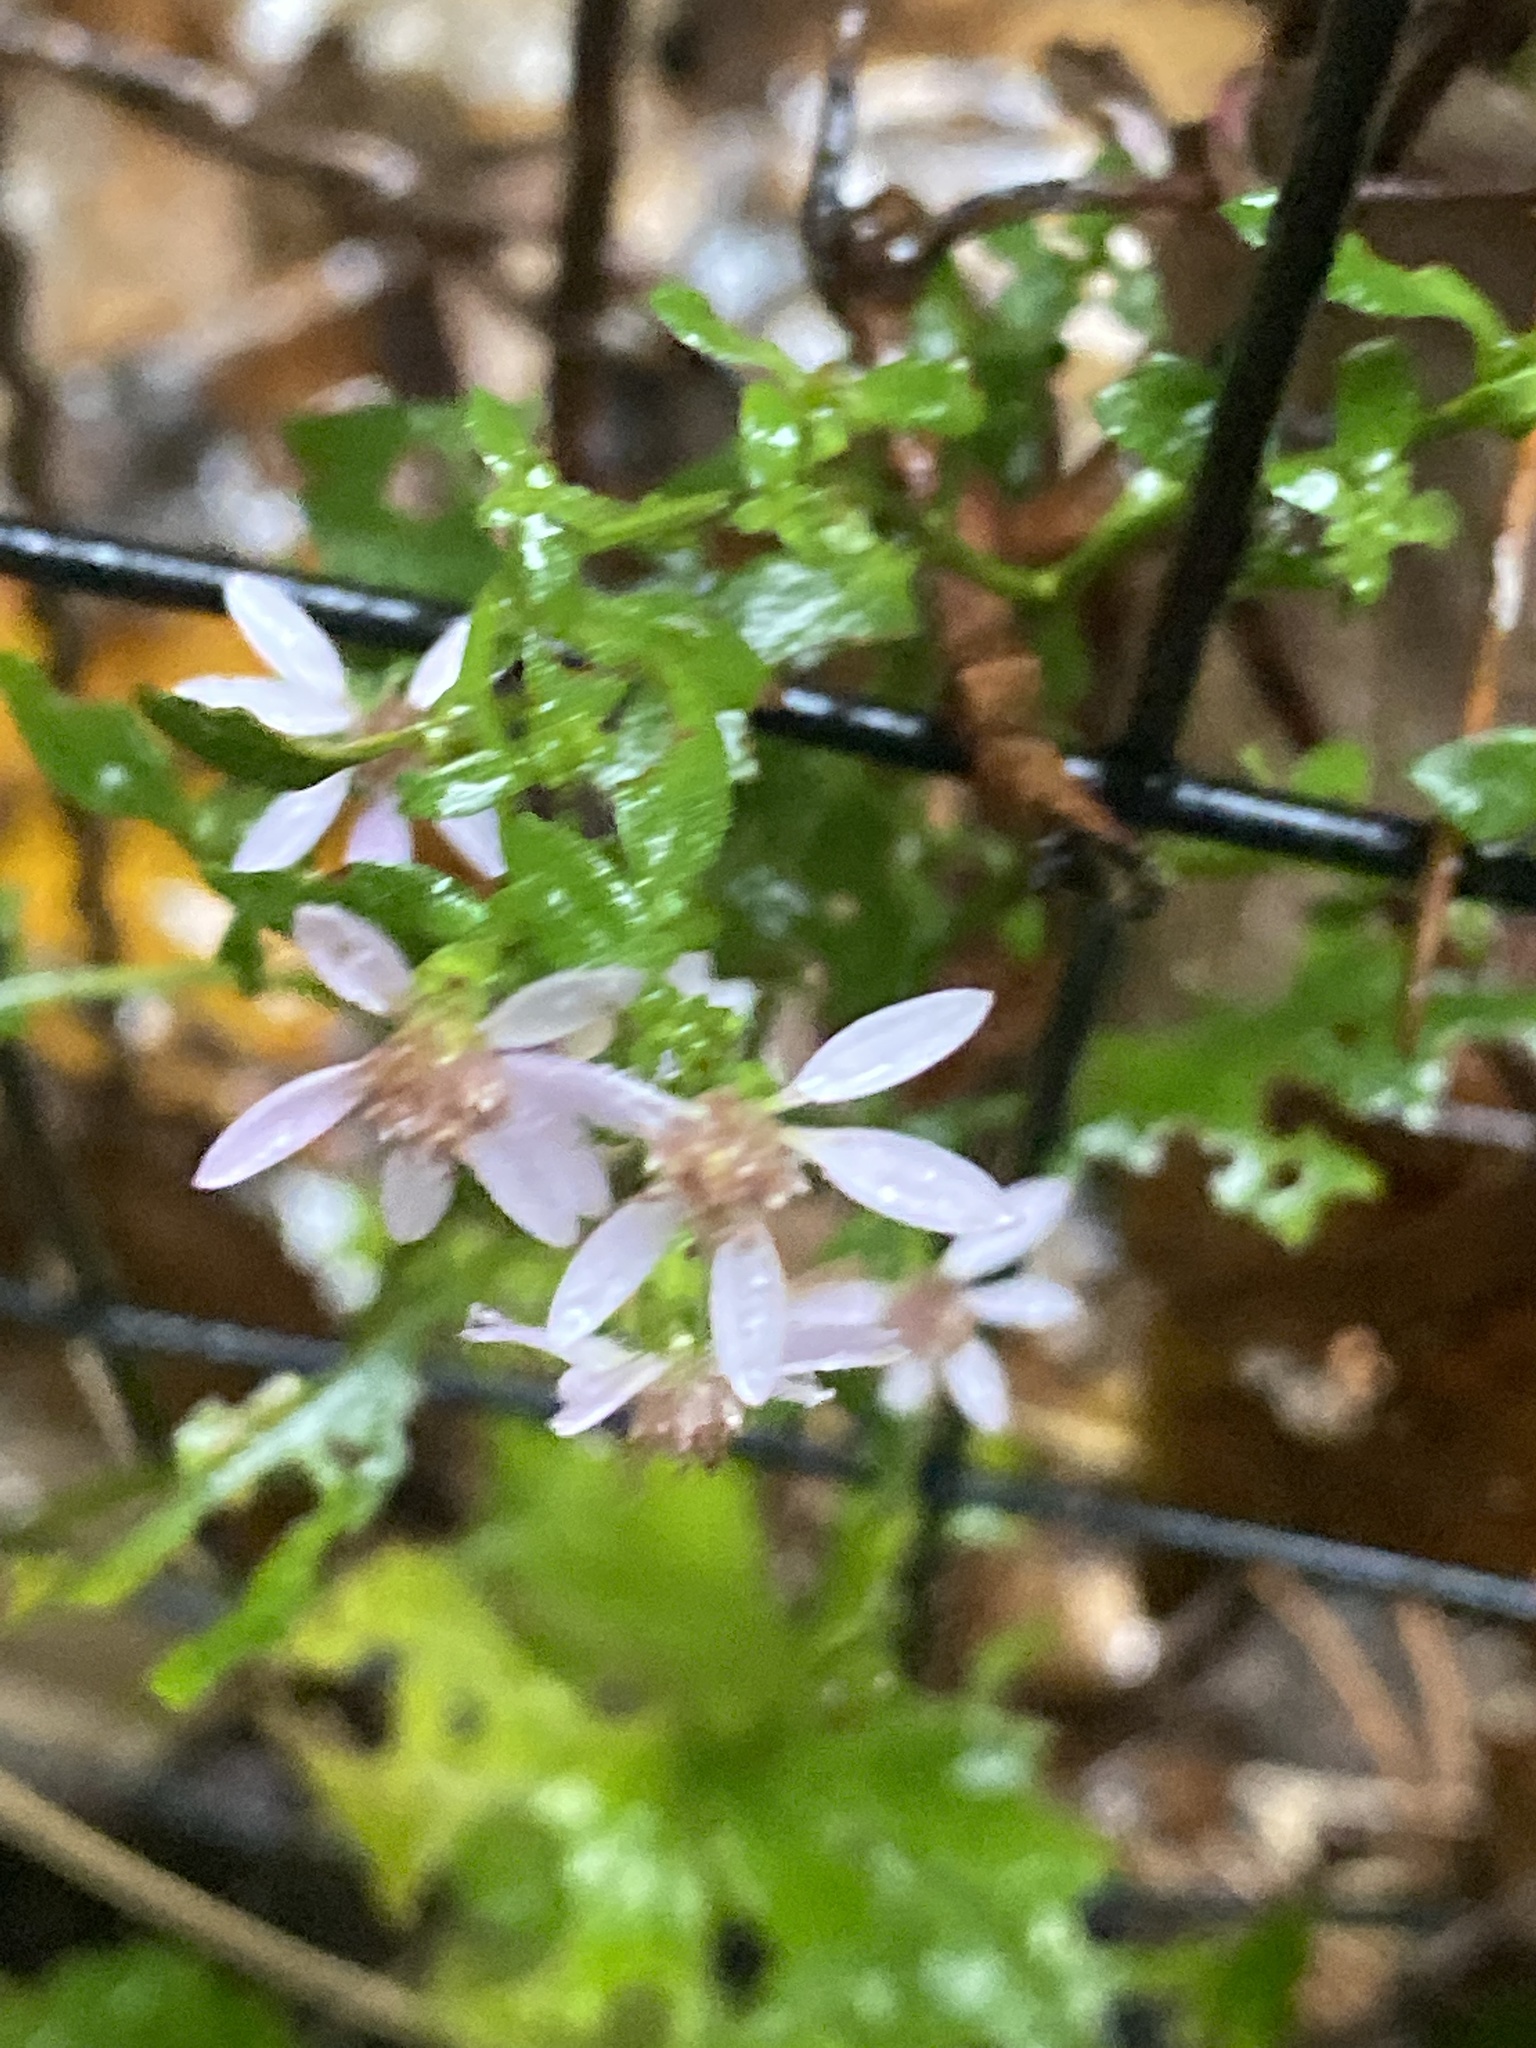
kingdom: Plantae
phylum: Tracheophyta
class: Magnoliopsida
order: Asterales
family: Asteraceae
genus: Symphyotrichum
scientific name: Symphyotrichum cordifolium
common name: Beeweed
